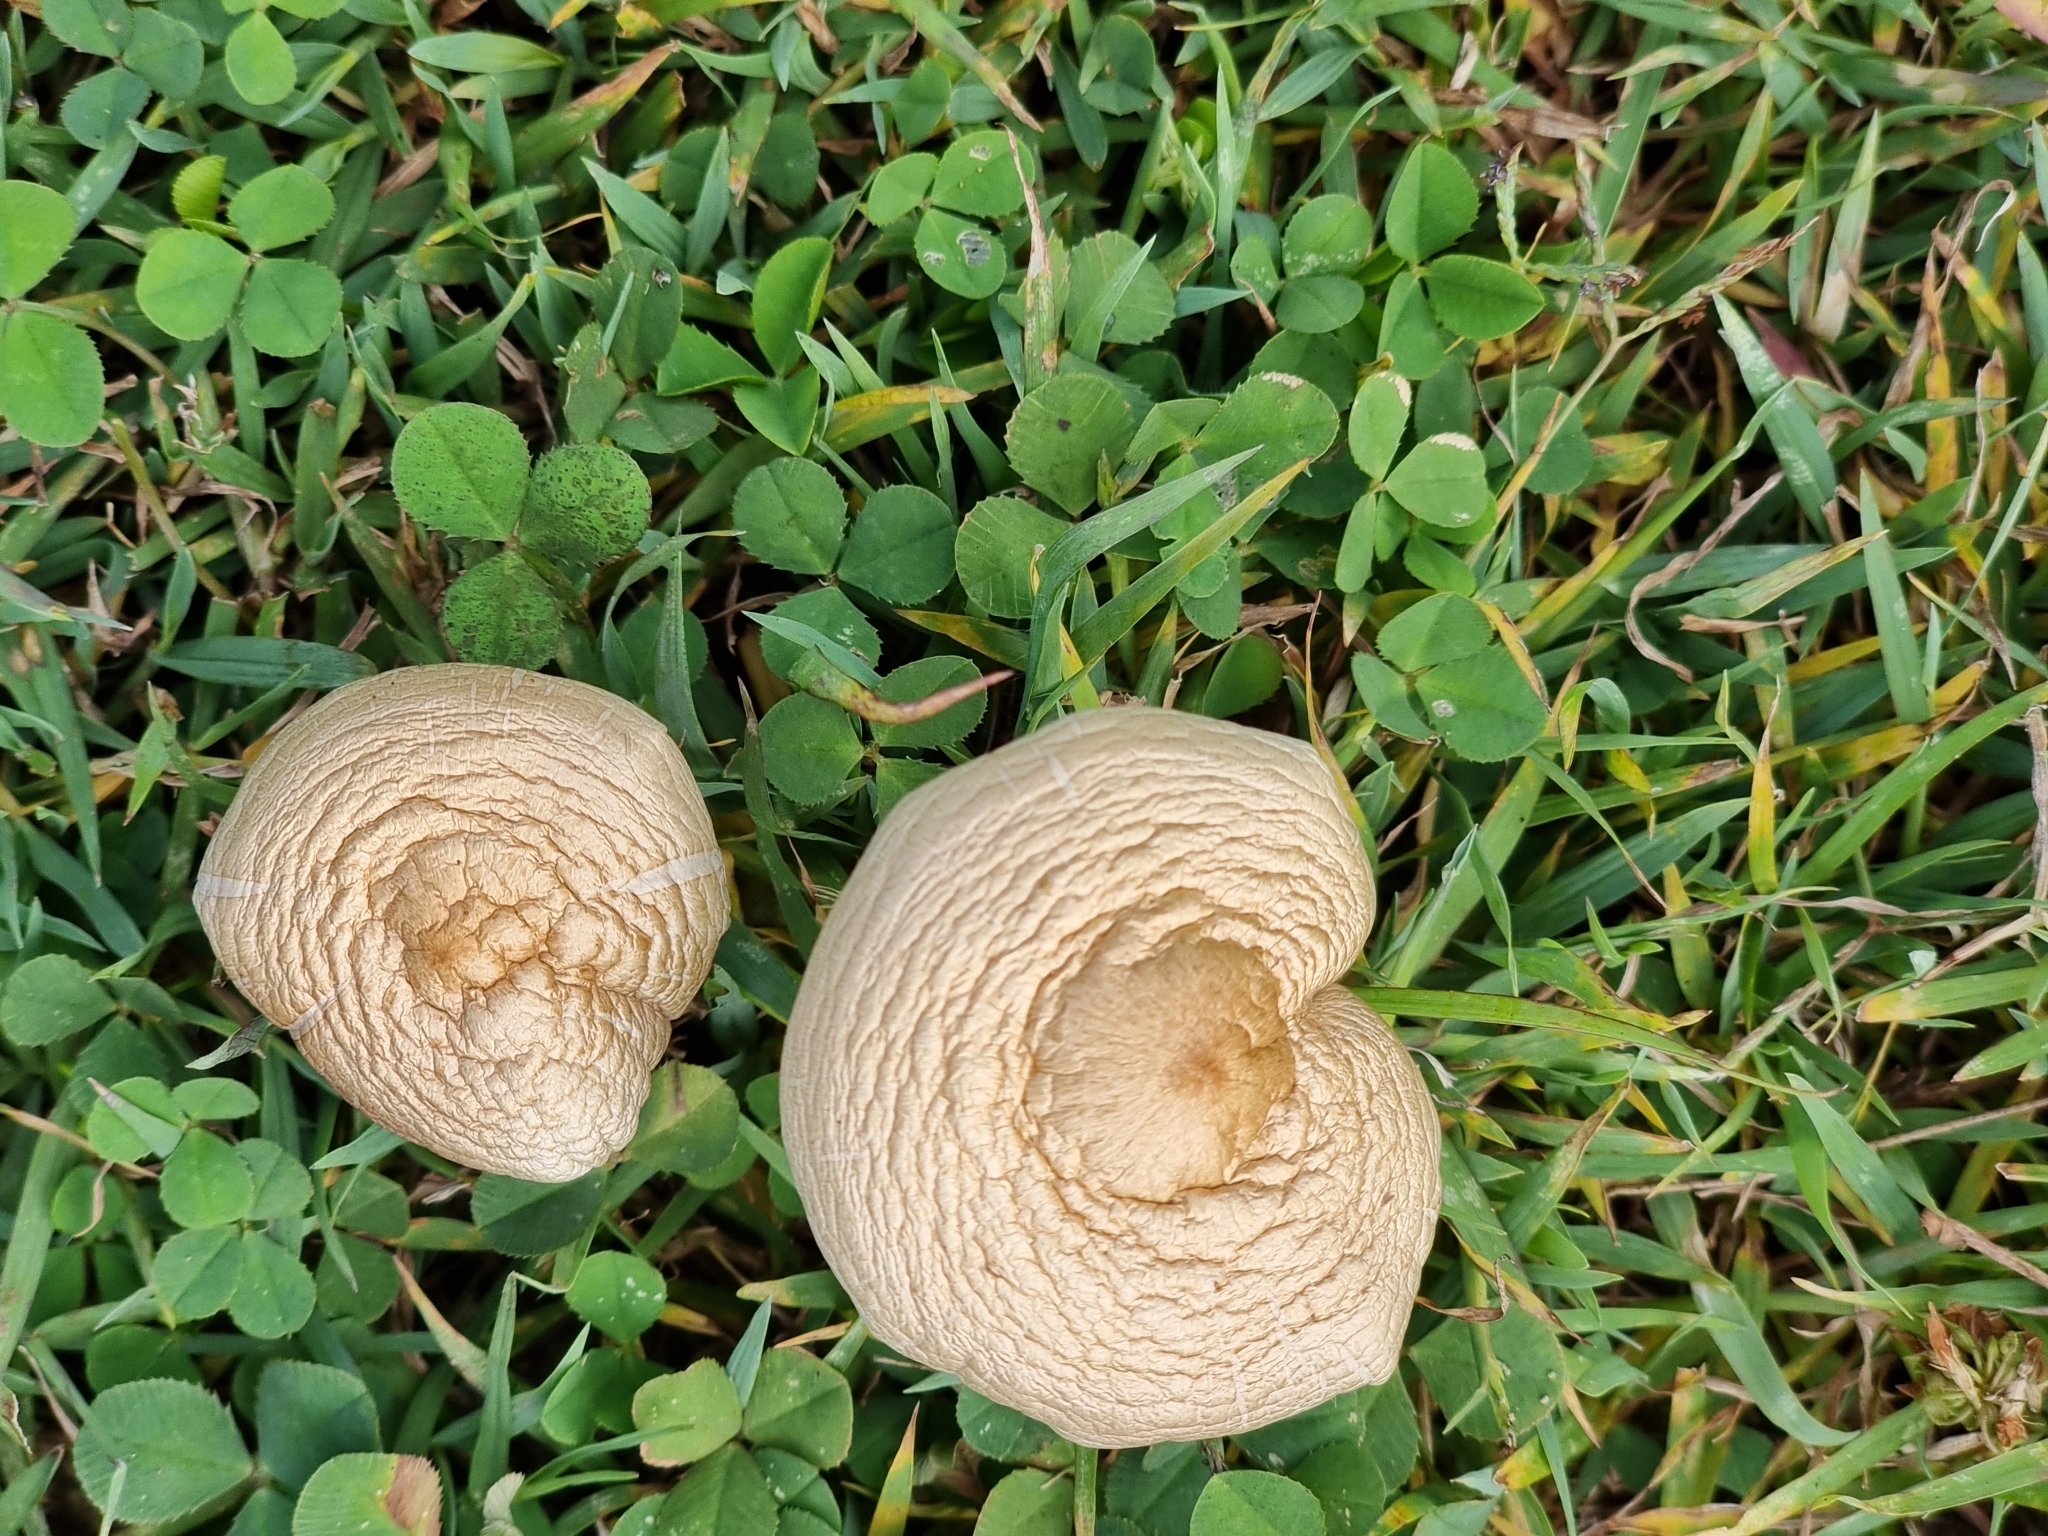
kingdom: Fungi
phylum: Basidiomycota
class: Agaricomycetes
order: Agaricales
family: Hymenogastraceae
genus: Psilocybe
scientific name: Psilocybe cubensis
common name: Golden brownie
